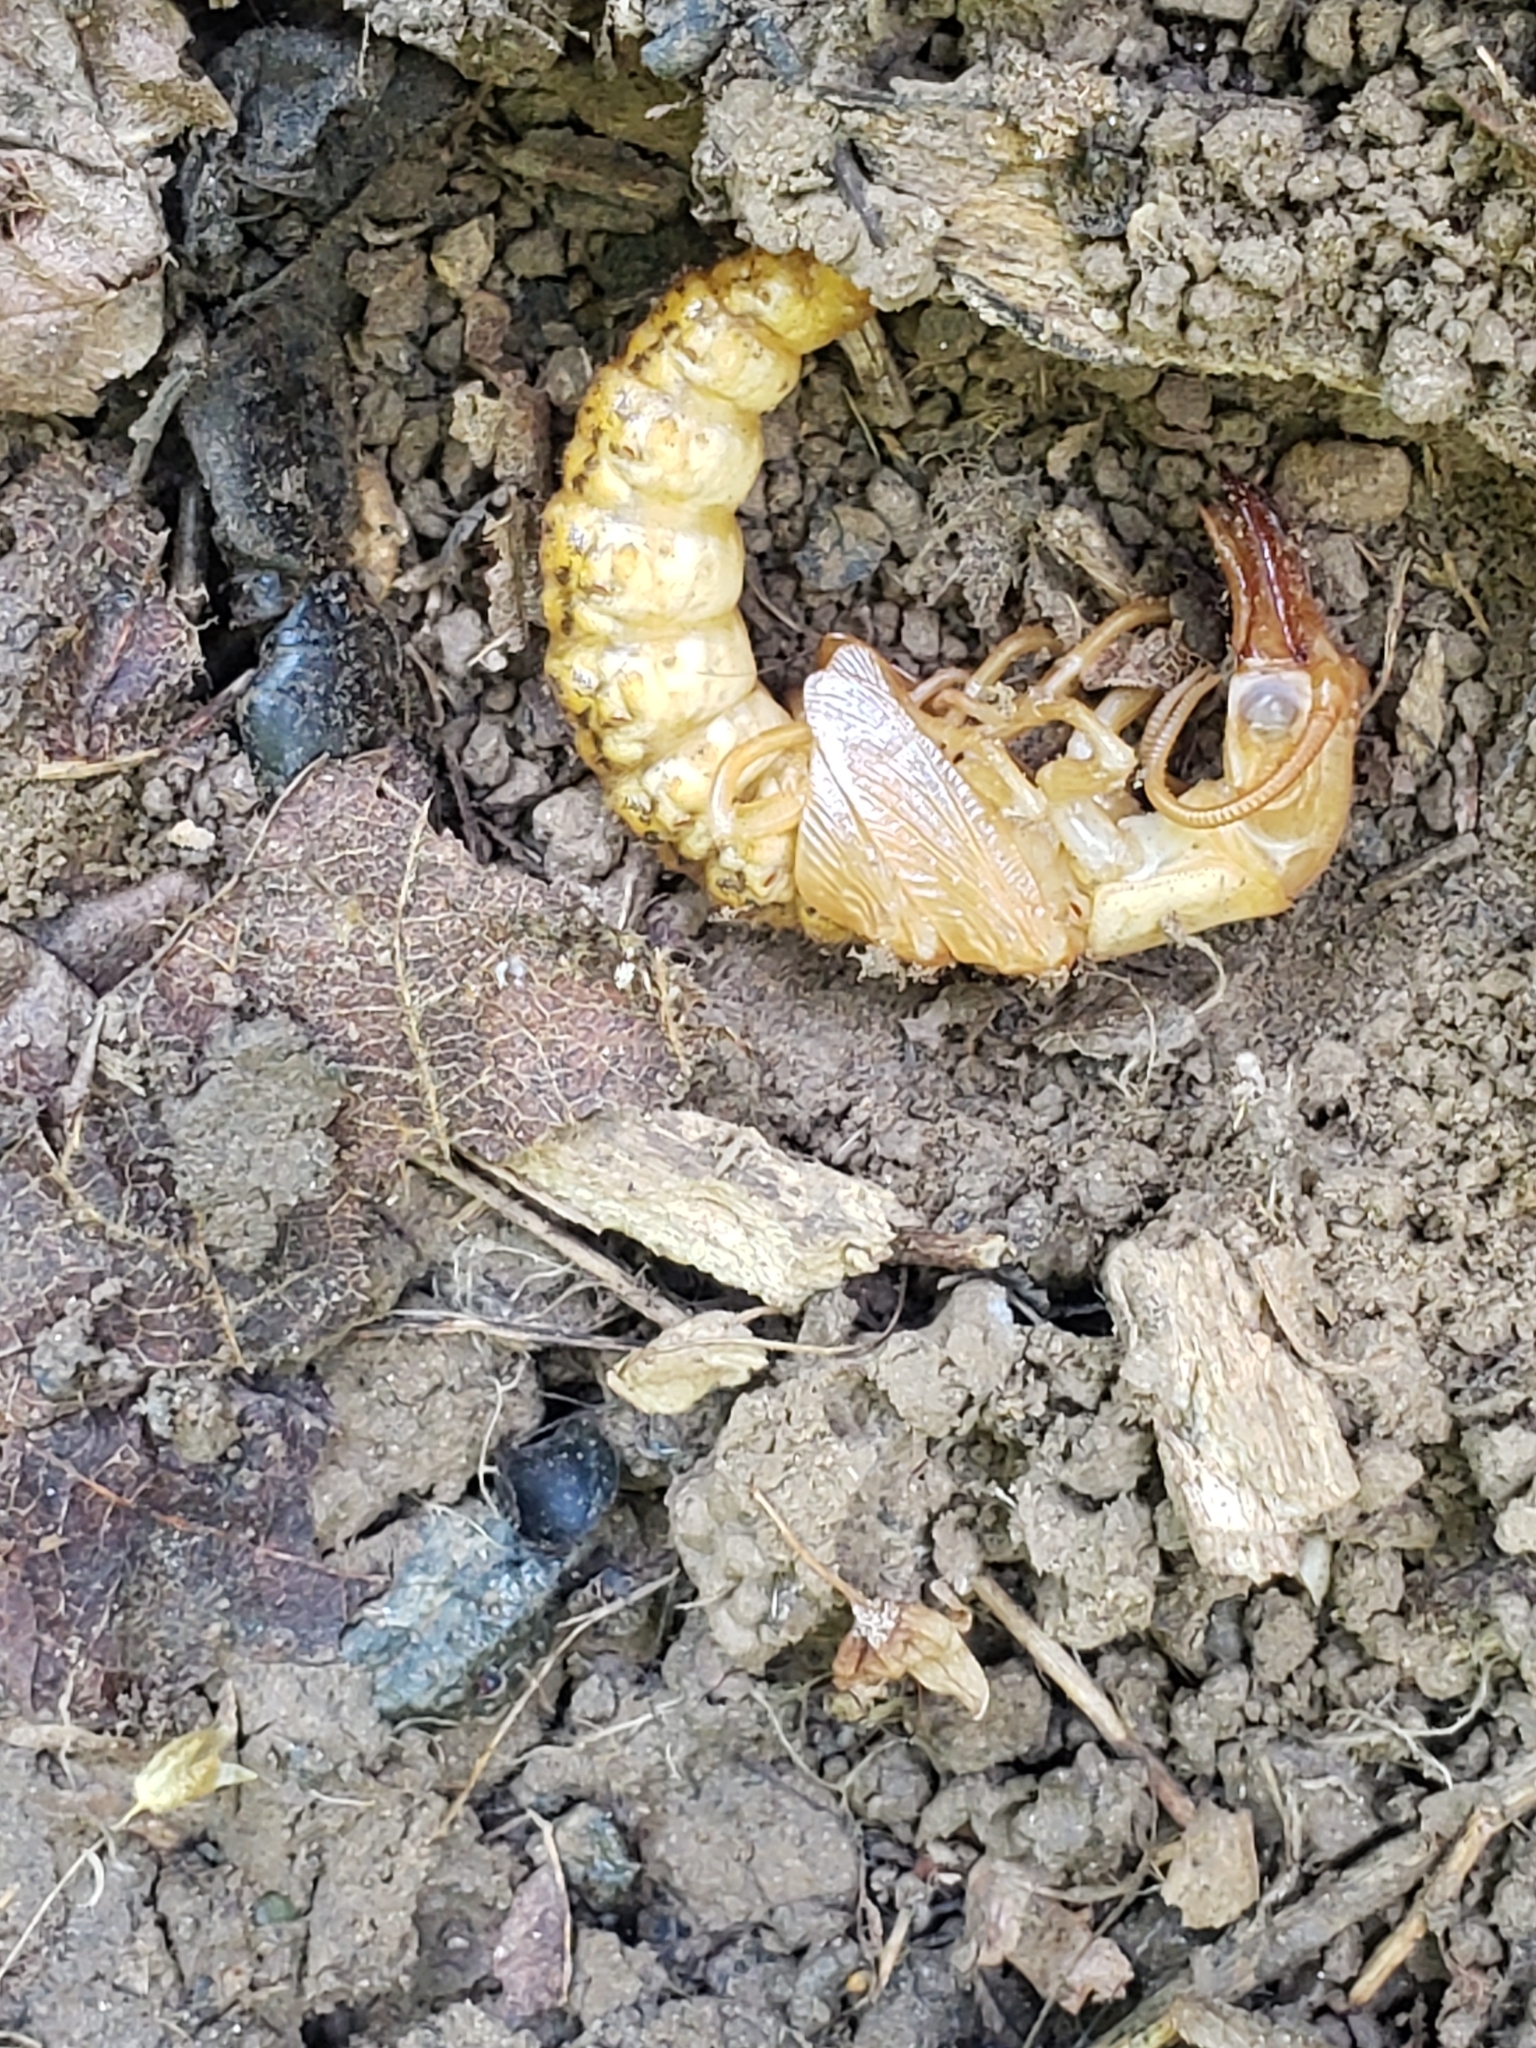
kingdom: Animalia
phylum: Arthropoda
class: Insecta
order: Megaloptera
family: Corydalidae
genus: Corydalus
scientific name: Corydalus cornutus
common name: Dobsonfly
